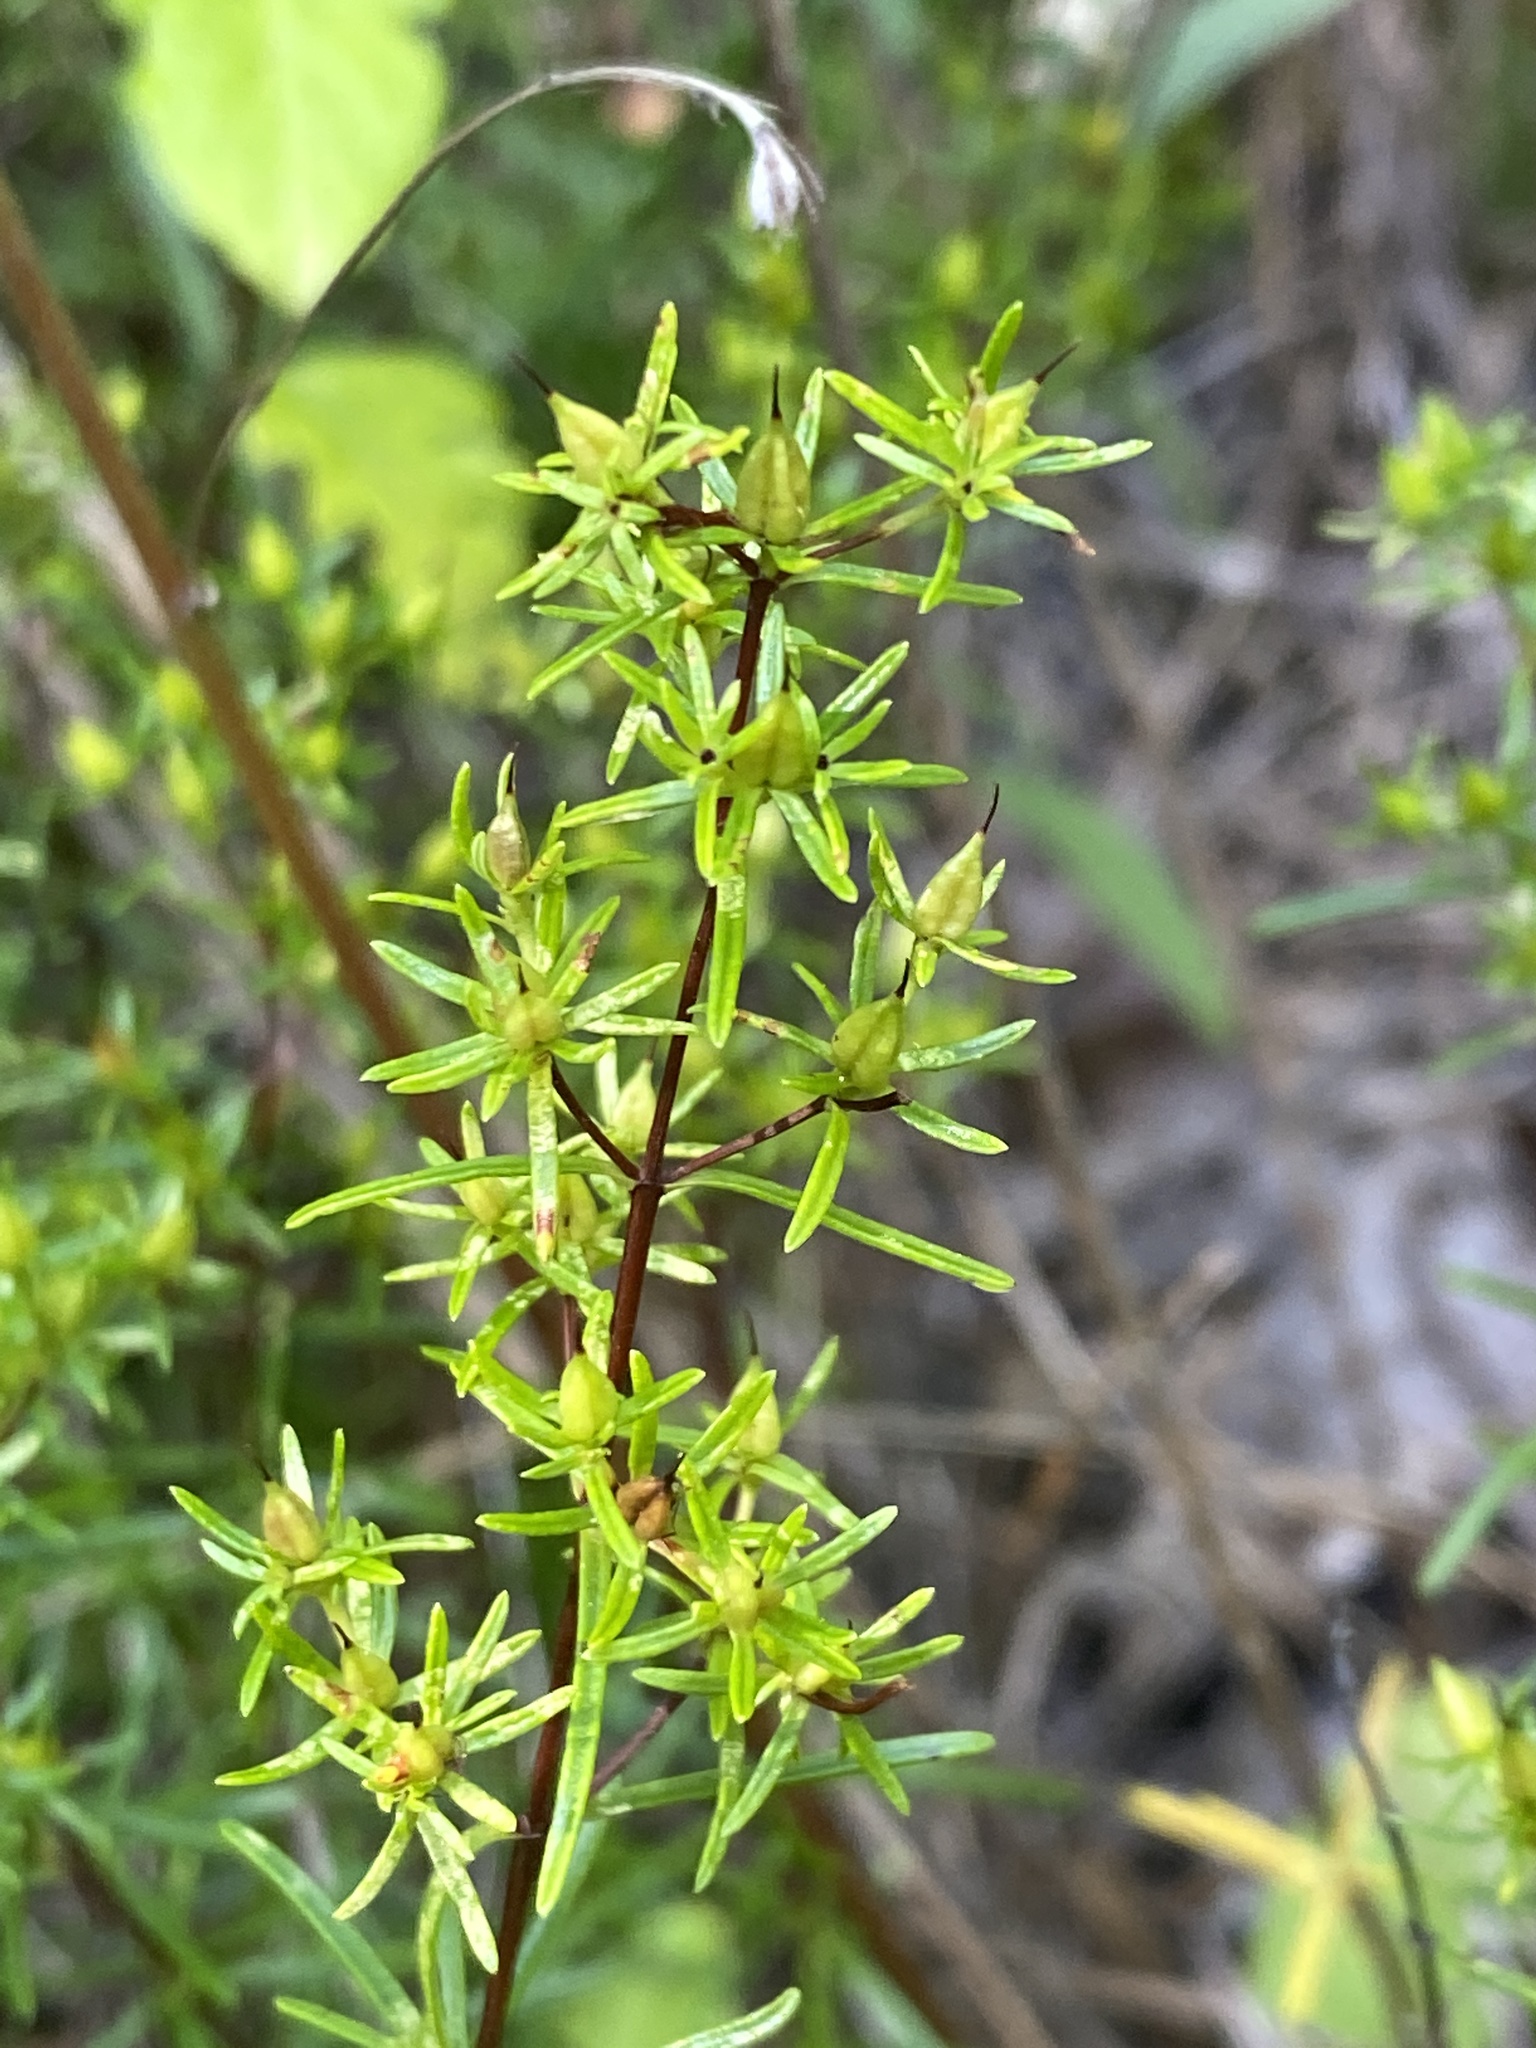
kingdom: Plantae
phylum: Tracheophyta
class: Magnoliopsida
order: Malpighiales
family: Hypericaceae
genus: Hypericum
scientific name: Hypericum lloydii
